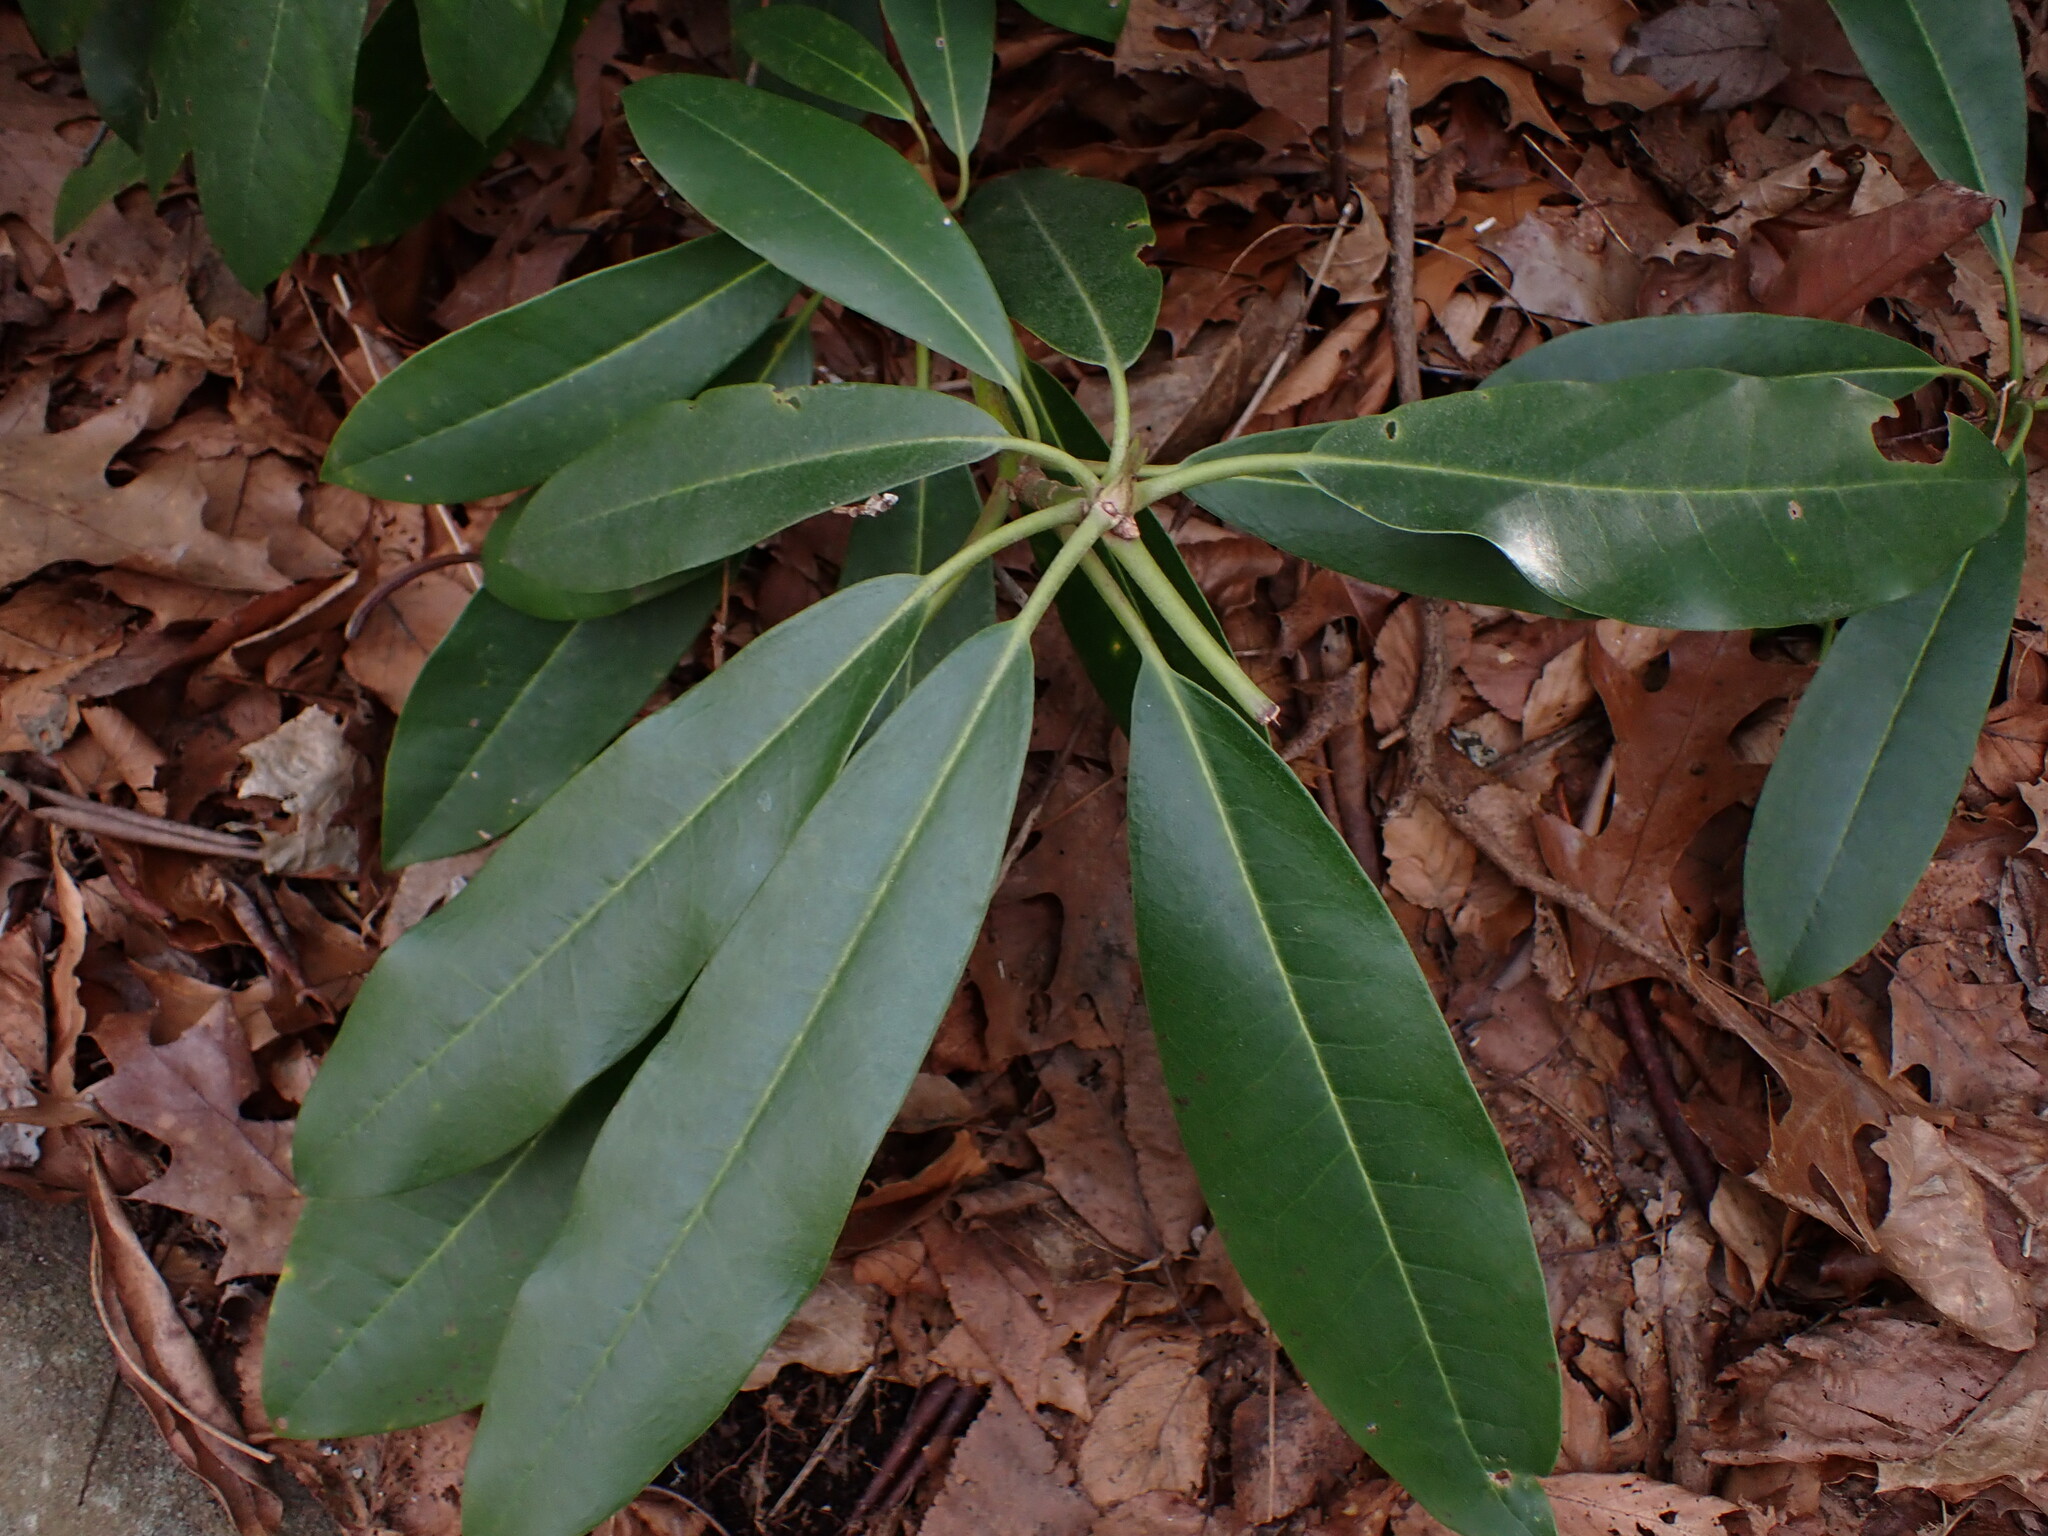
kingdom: Plantae
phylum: Tracheophyta
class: Magnoliopsida
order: Ericales
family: Ericaceae
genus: Rhododendron
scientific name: Rhododendron maximum
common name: Great rhododendron
